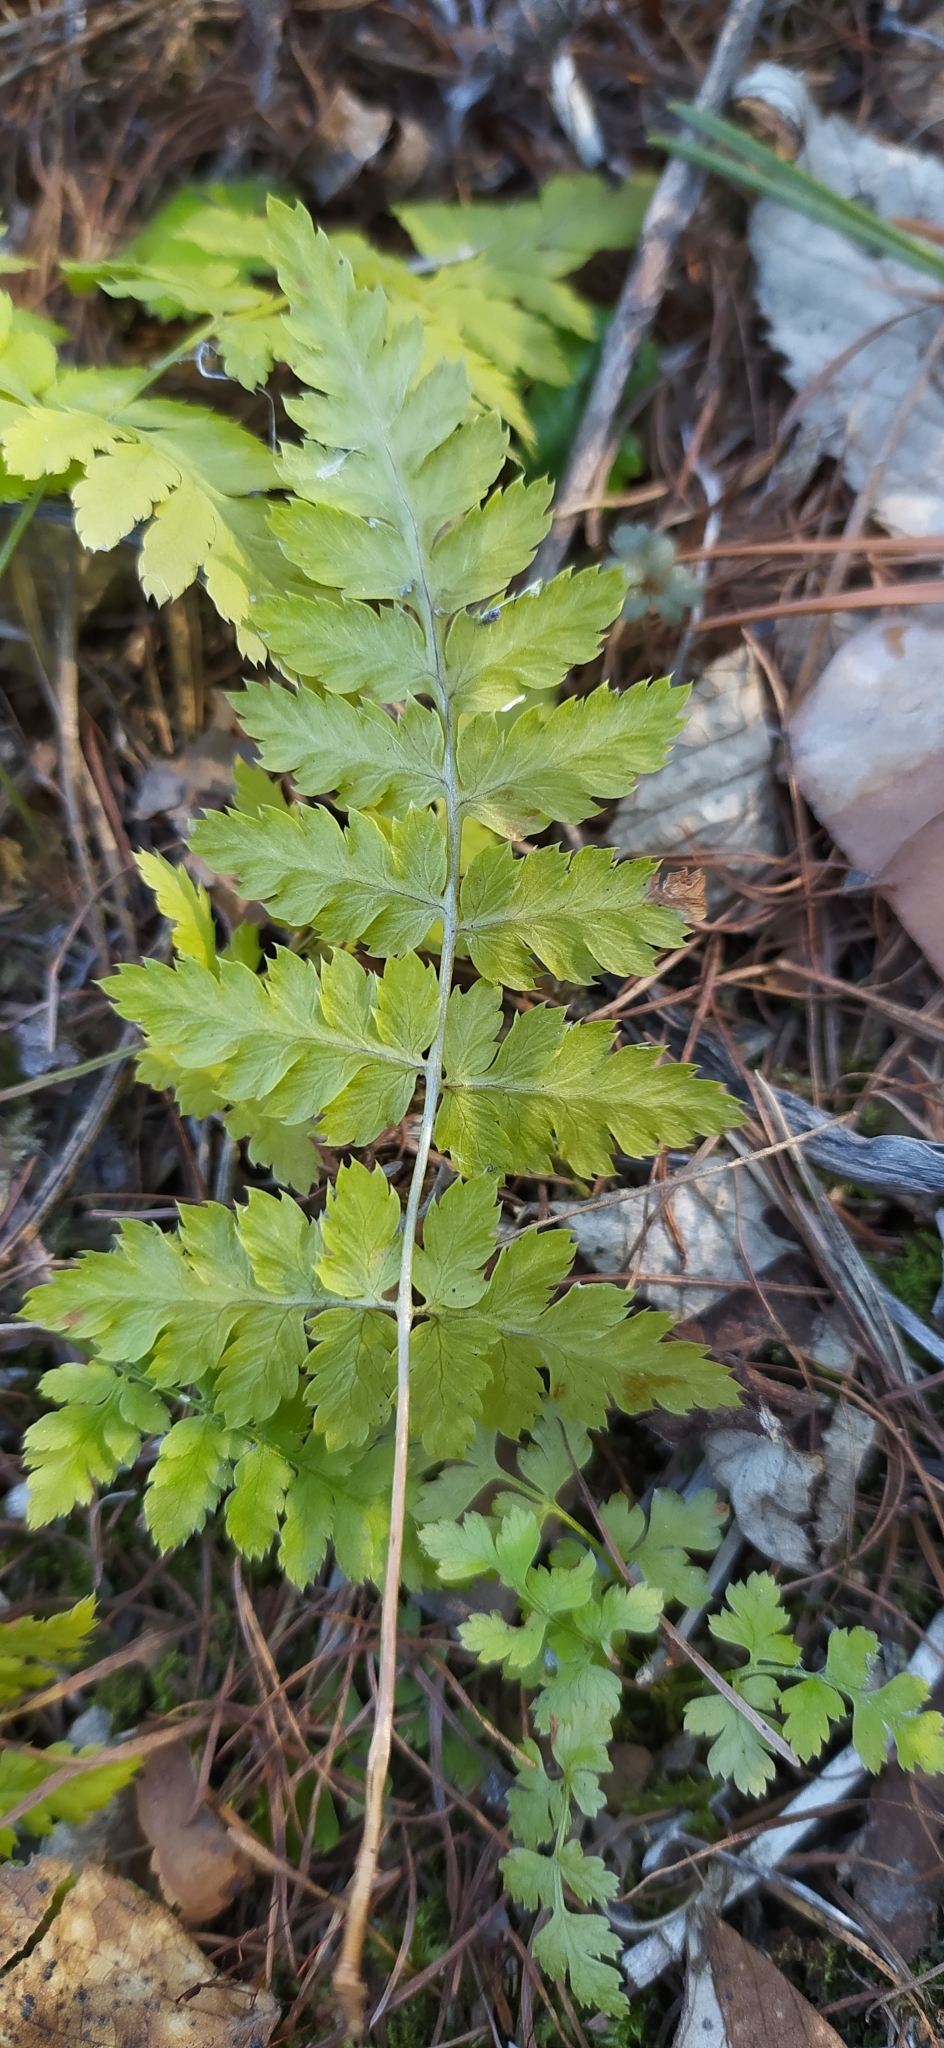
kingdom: Plantae
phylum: Tracheophyta
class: Polypodiopsida
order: Polypodiales
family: Dryopteridaceae
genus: Dryopteris
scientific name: Dryopteris carthusiana
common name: Narrow buckler-fern
